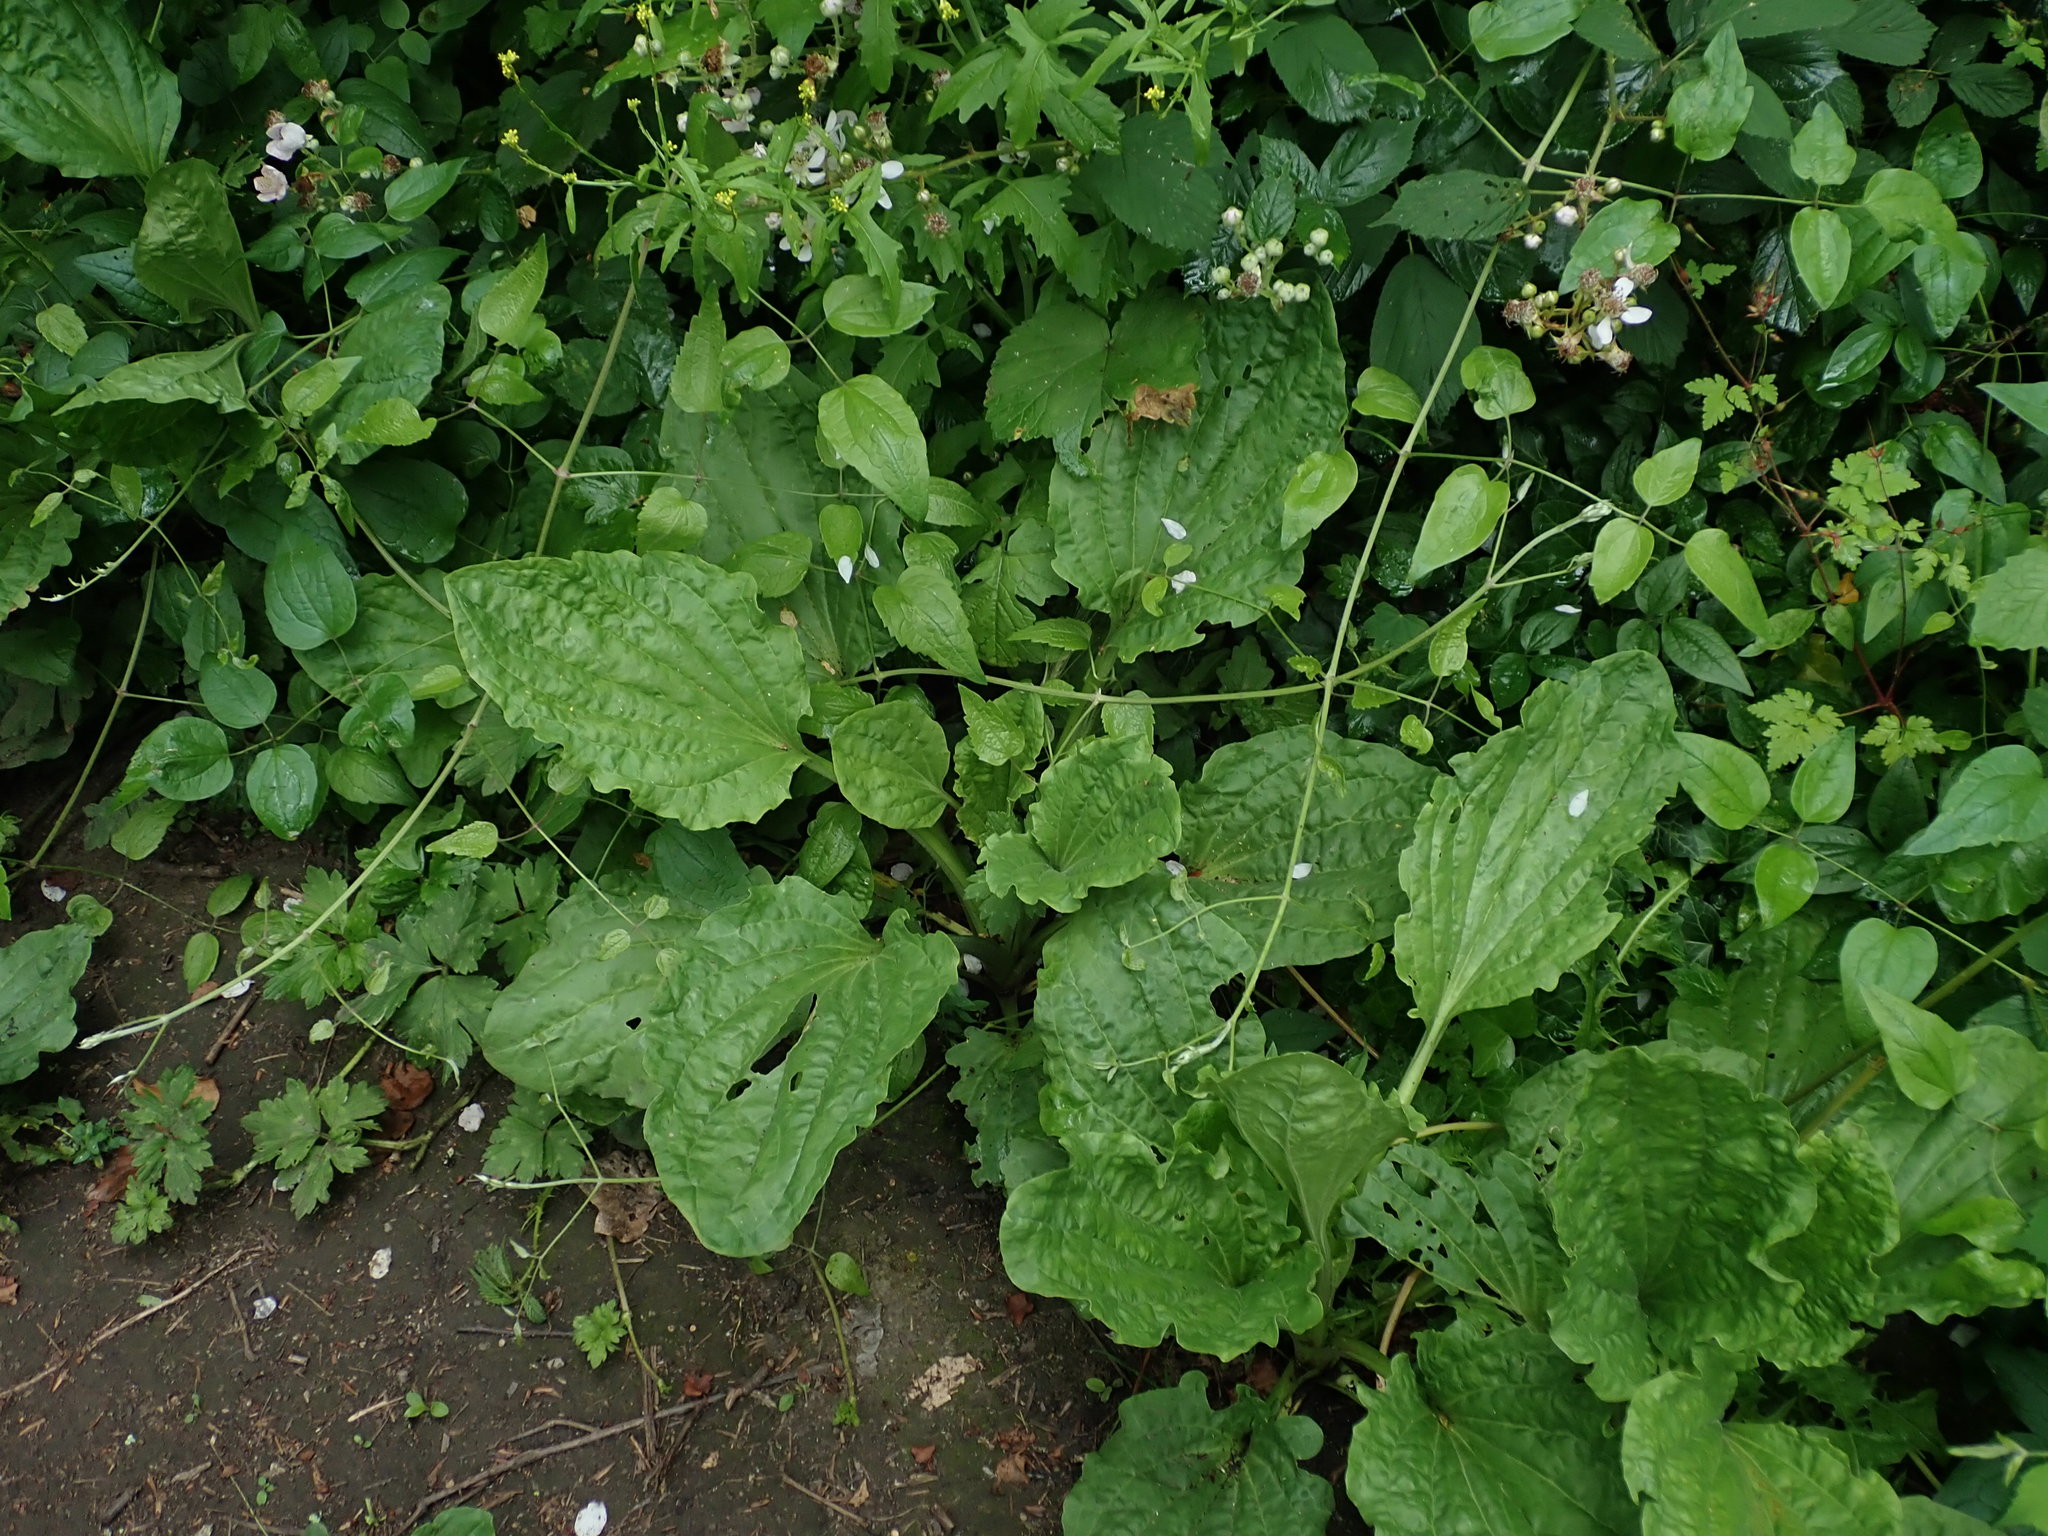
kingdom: Plantae
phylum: Tracheophyta
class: Magnoliopsida
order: Lamiales
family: Plantaginaceae
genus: Plantago
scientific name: Plantago major
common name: Common plantain
